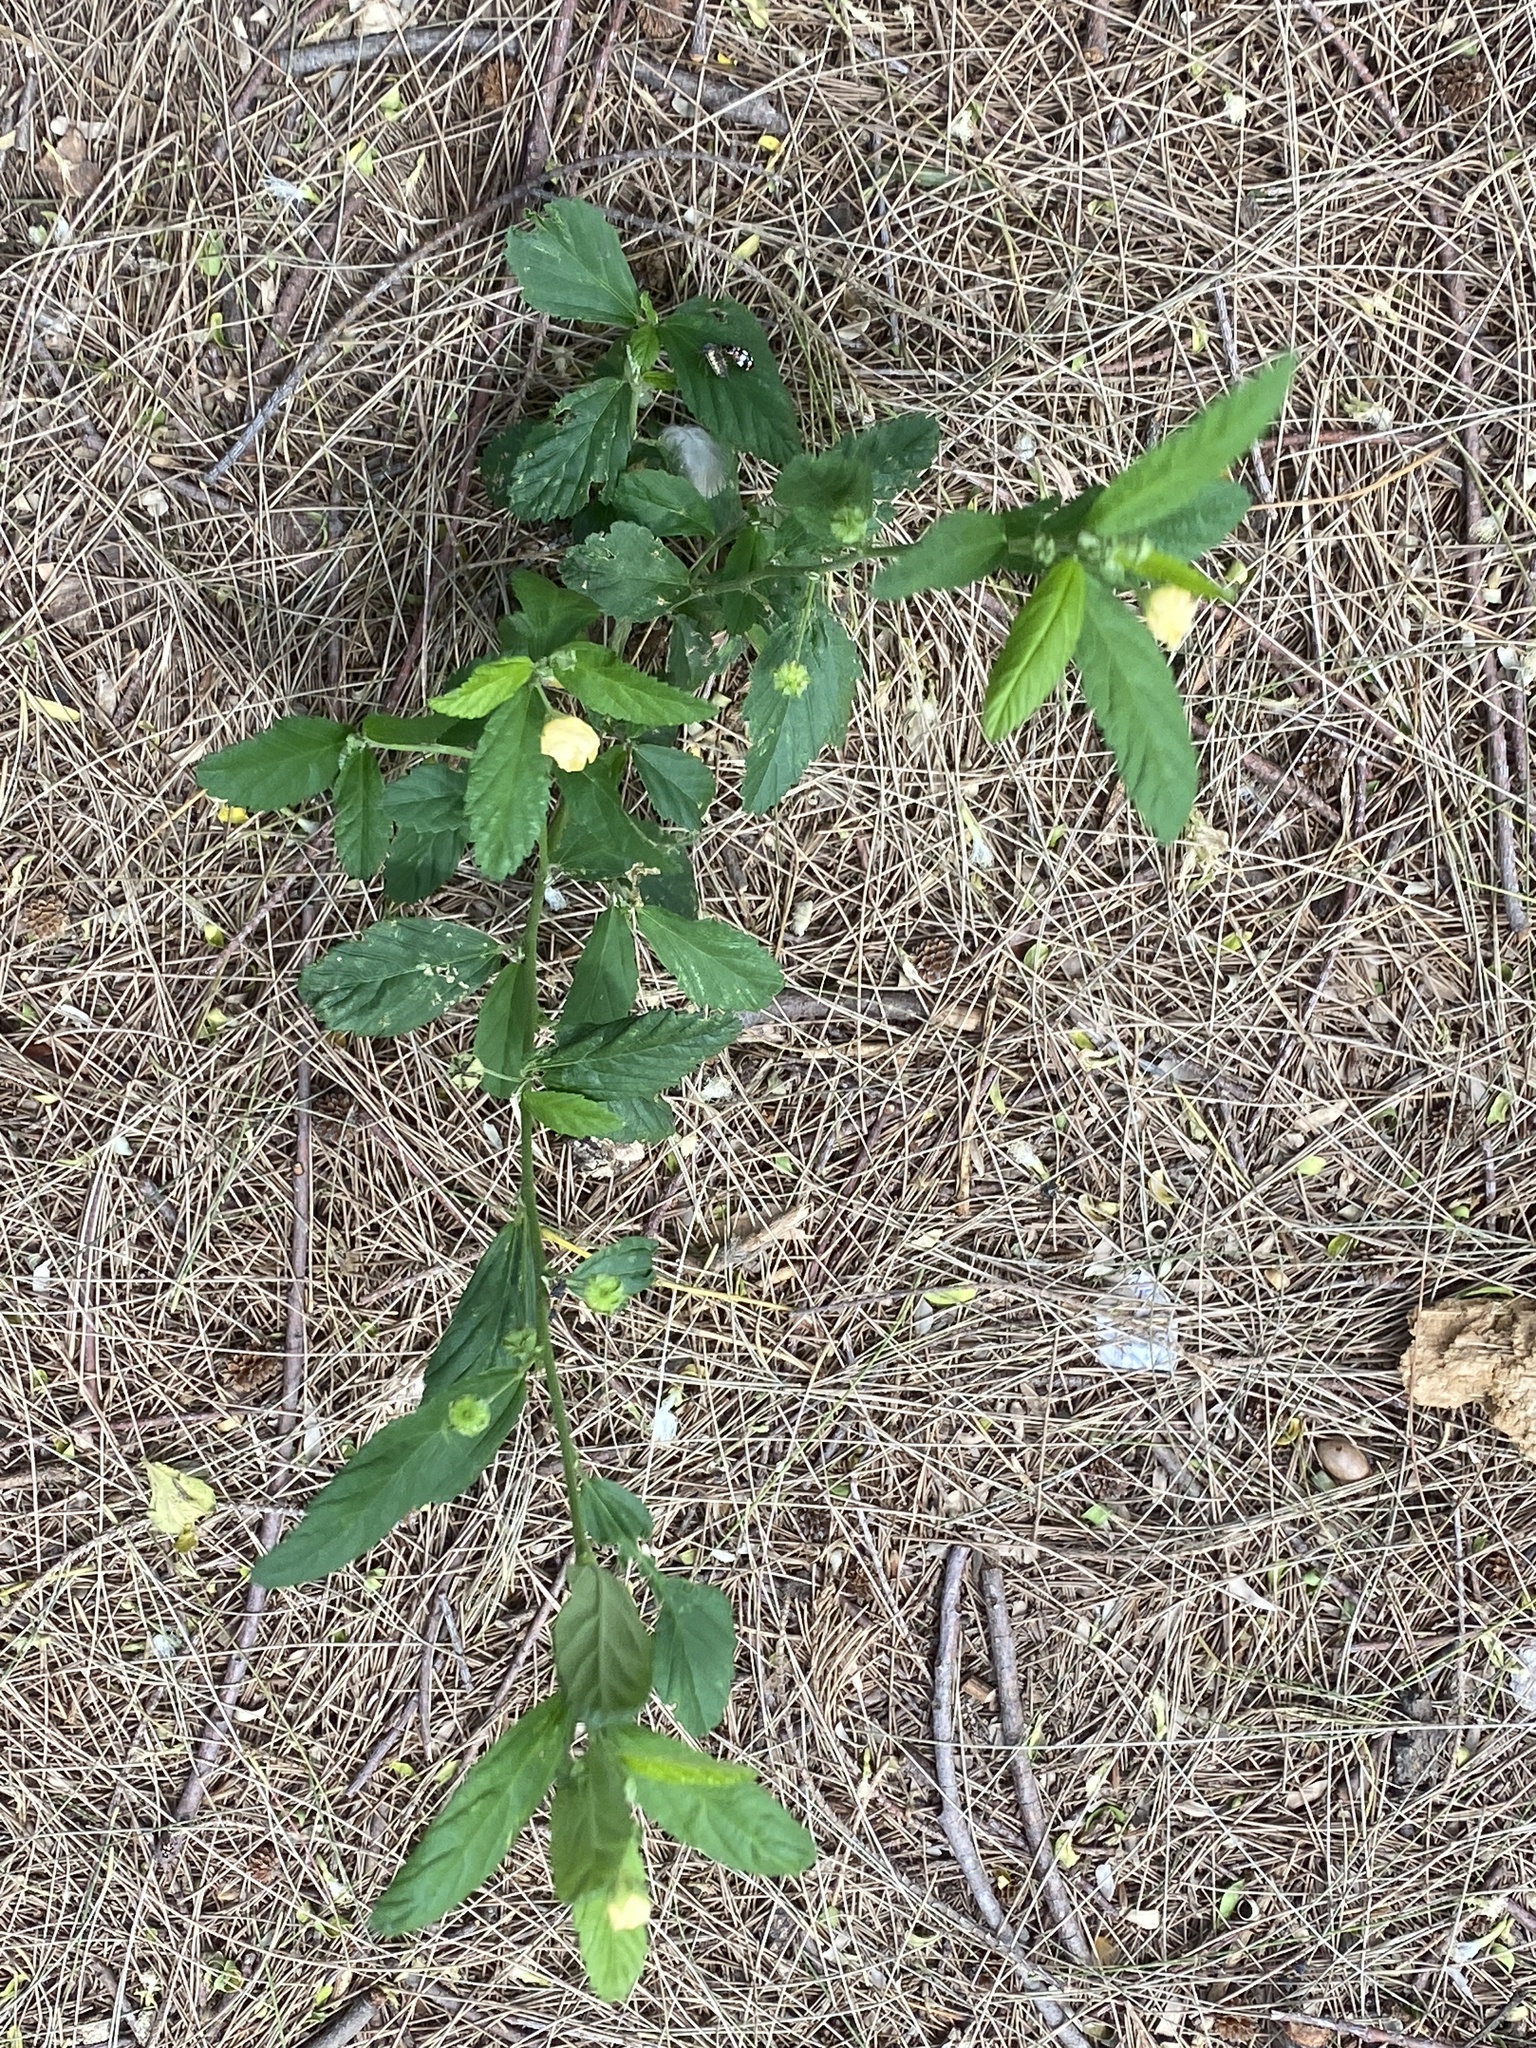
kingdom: Plantae
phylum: Tracheophyta
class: Magnoliopsida
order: Malvales
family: Malvaceae
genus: Sida
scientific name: Sida rhombifolia
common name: Queensland-hemp
